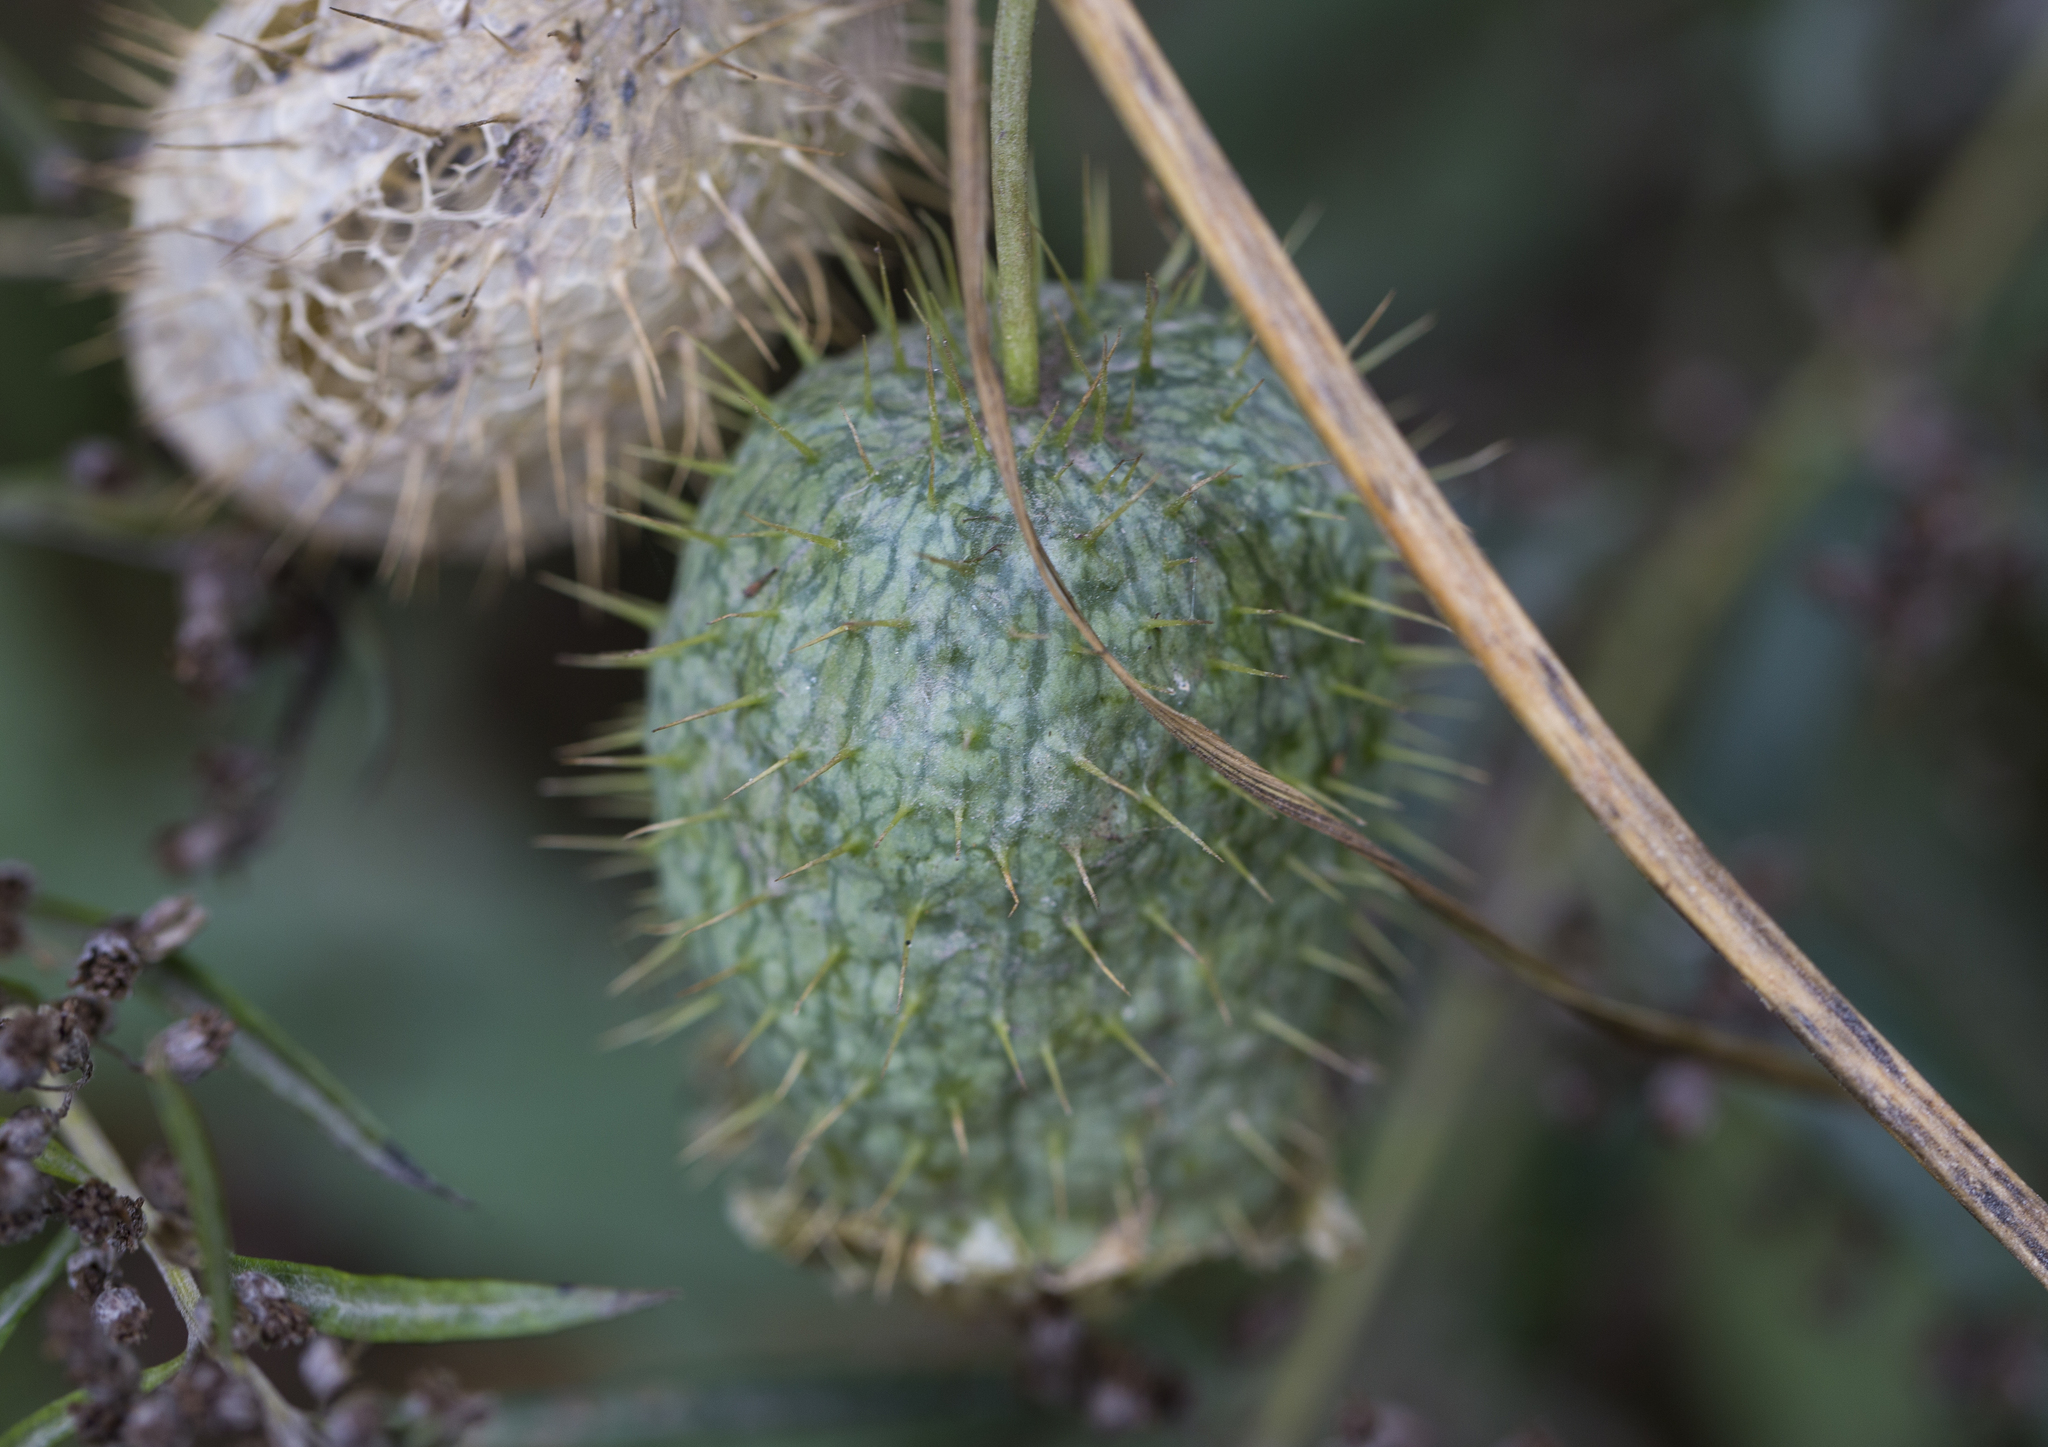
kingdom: Plantae
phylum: Tracheophyta
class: Magnoliopsida
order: Cucurbitales
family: Cucurbitaceae
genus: Echinocystis
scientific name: Echinocystis lobata
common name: Wild cucumber
